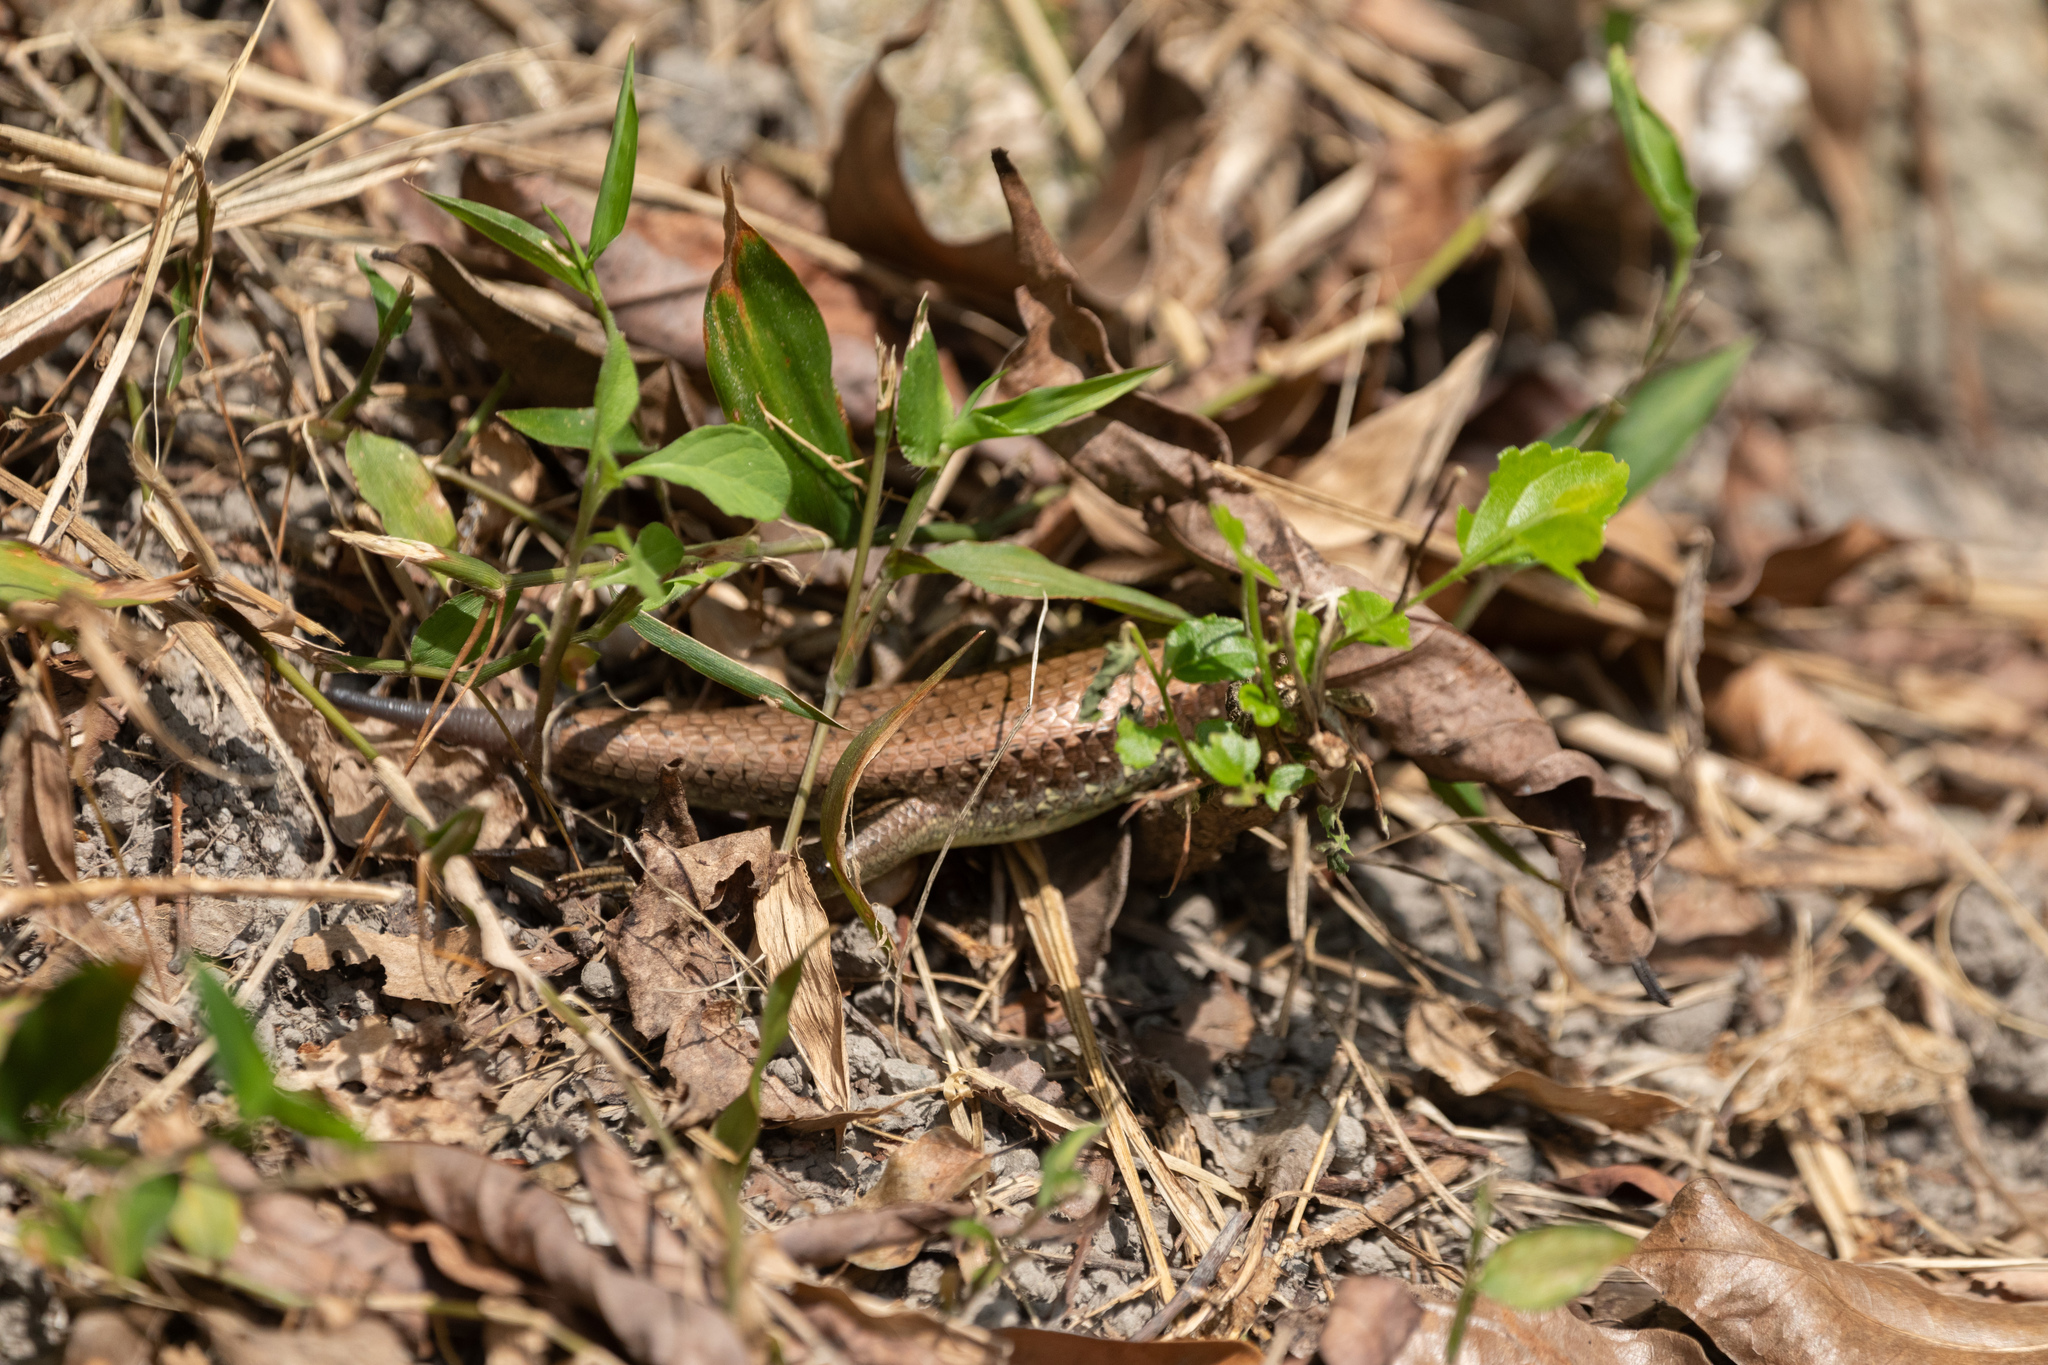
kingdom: Animalia
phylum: Chordata
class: Squamata
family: Scincidae
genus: Eutropis
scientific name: Eutropis longicaudata
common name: Long-tailed sun skink
